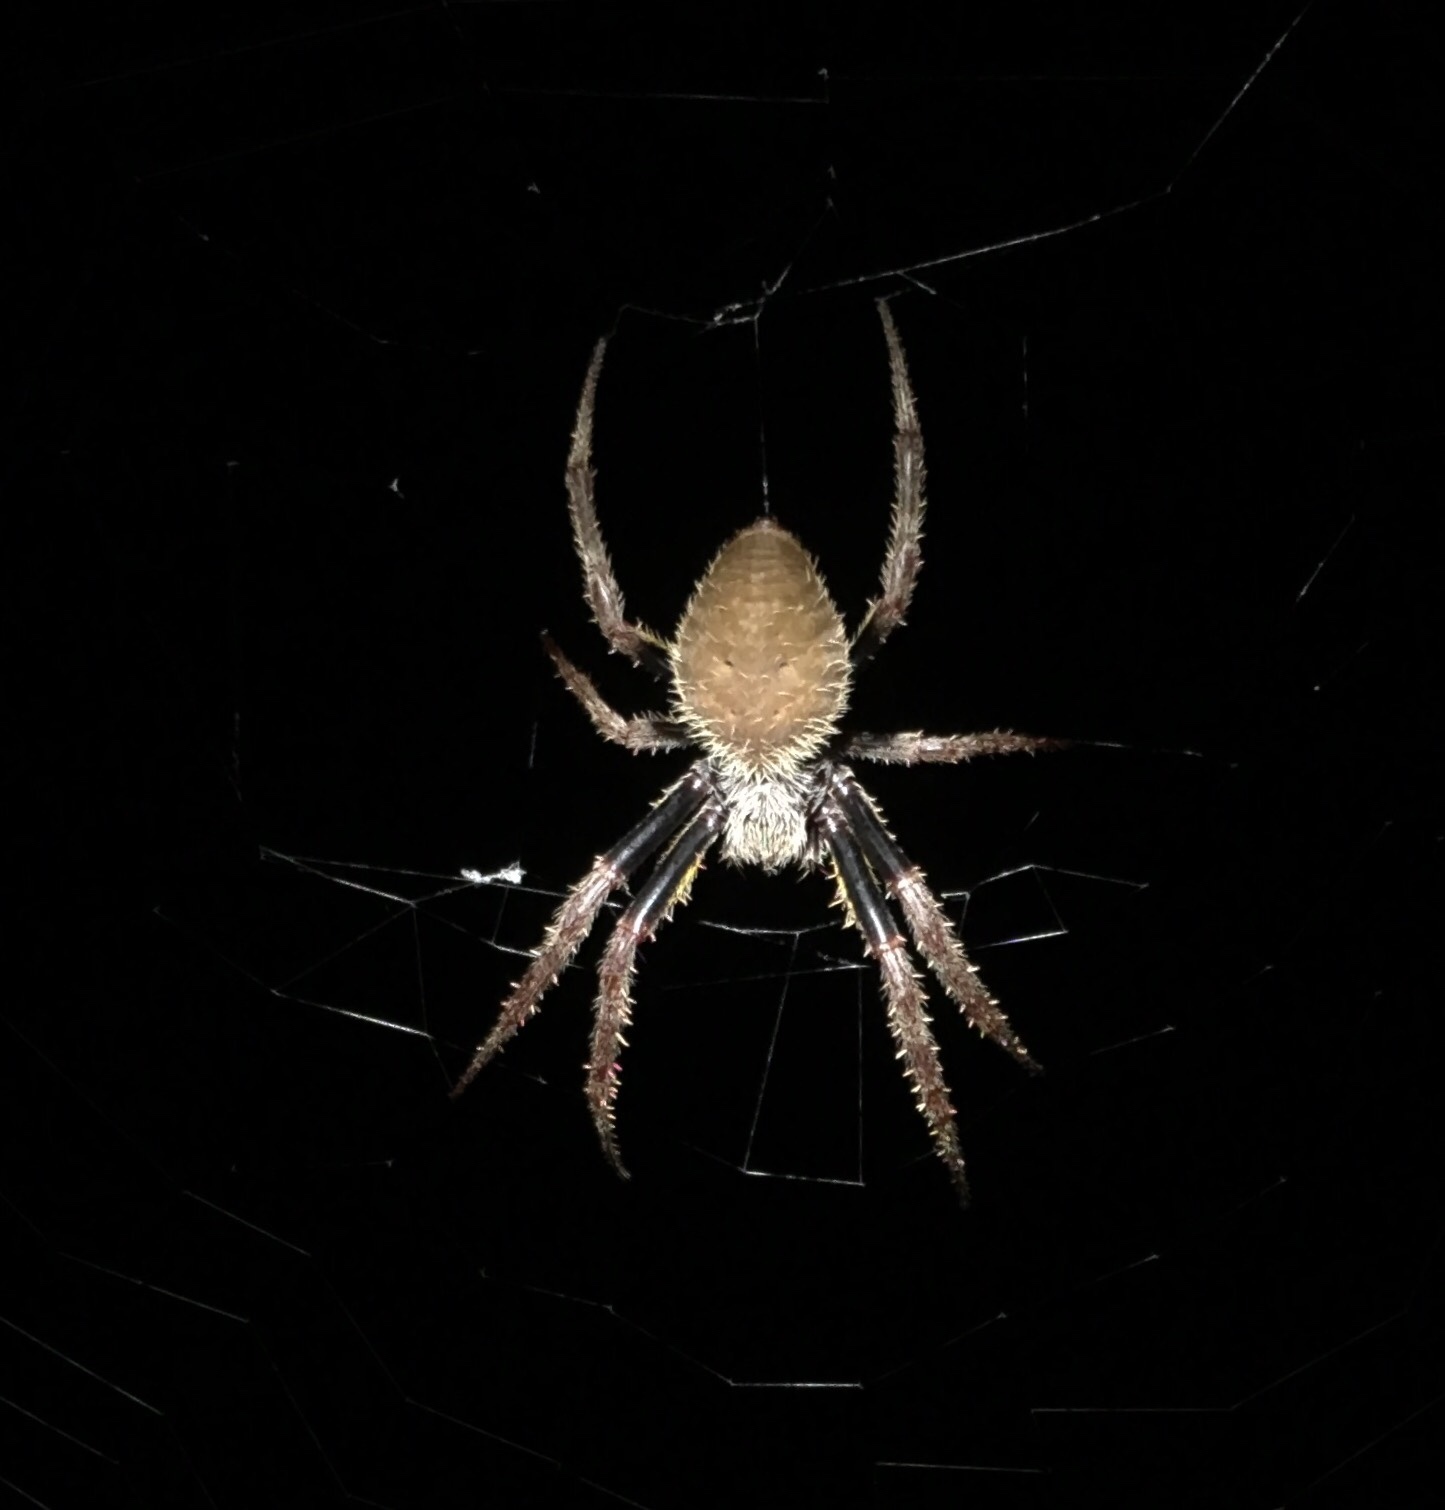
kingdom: Animalia
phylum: Arthropoda
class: Arachnida
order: Araneae
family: Araneidae
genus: Eriophora
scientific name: Eriophora ravilla
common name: Orb weavers
